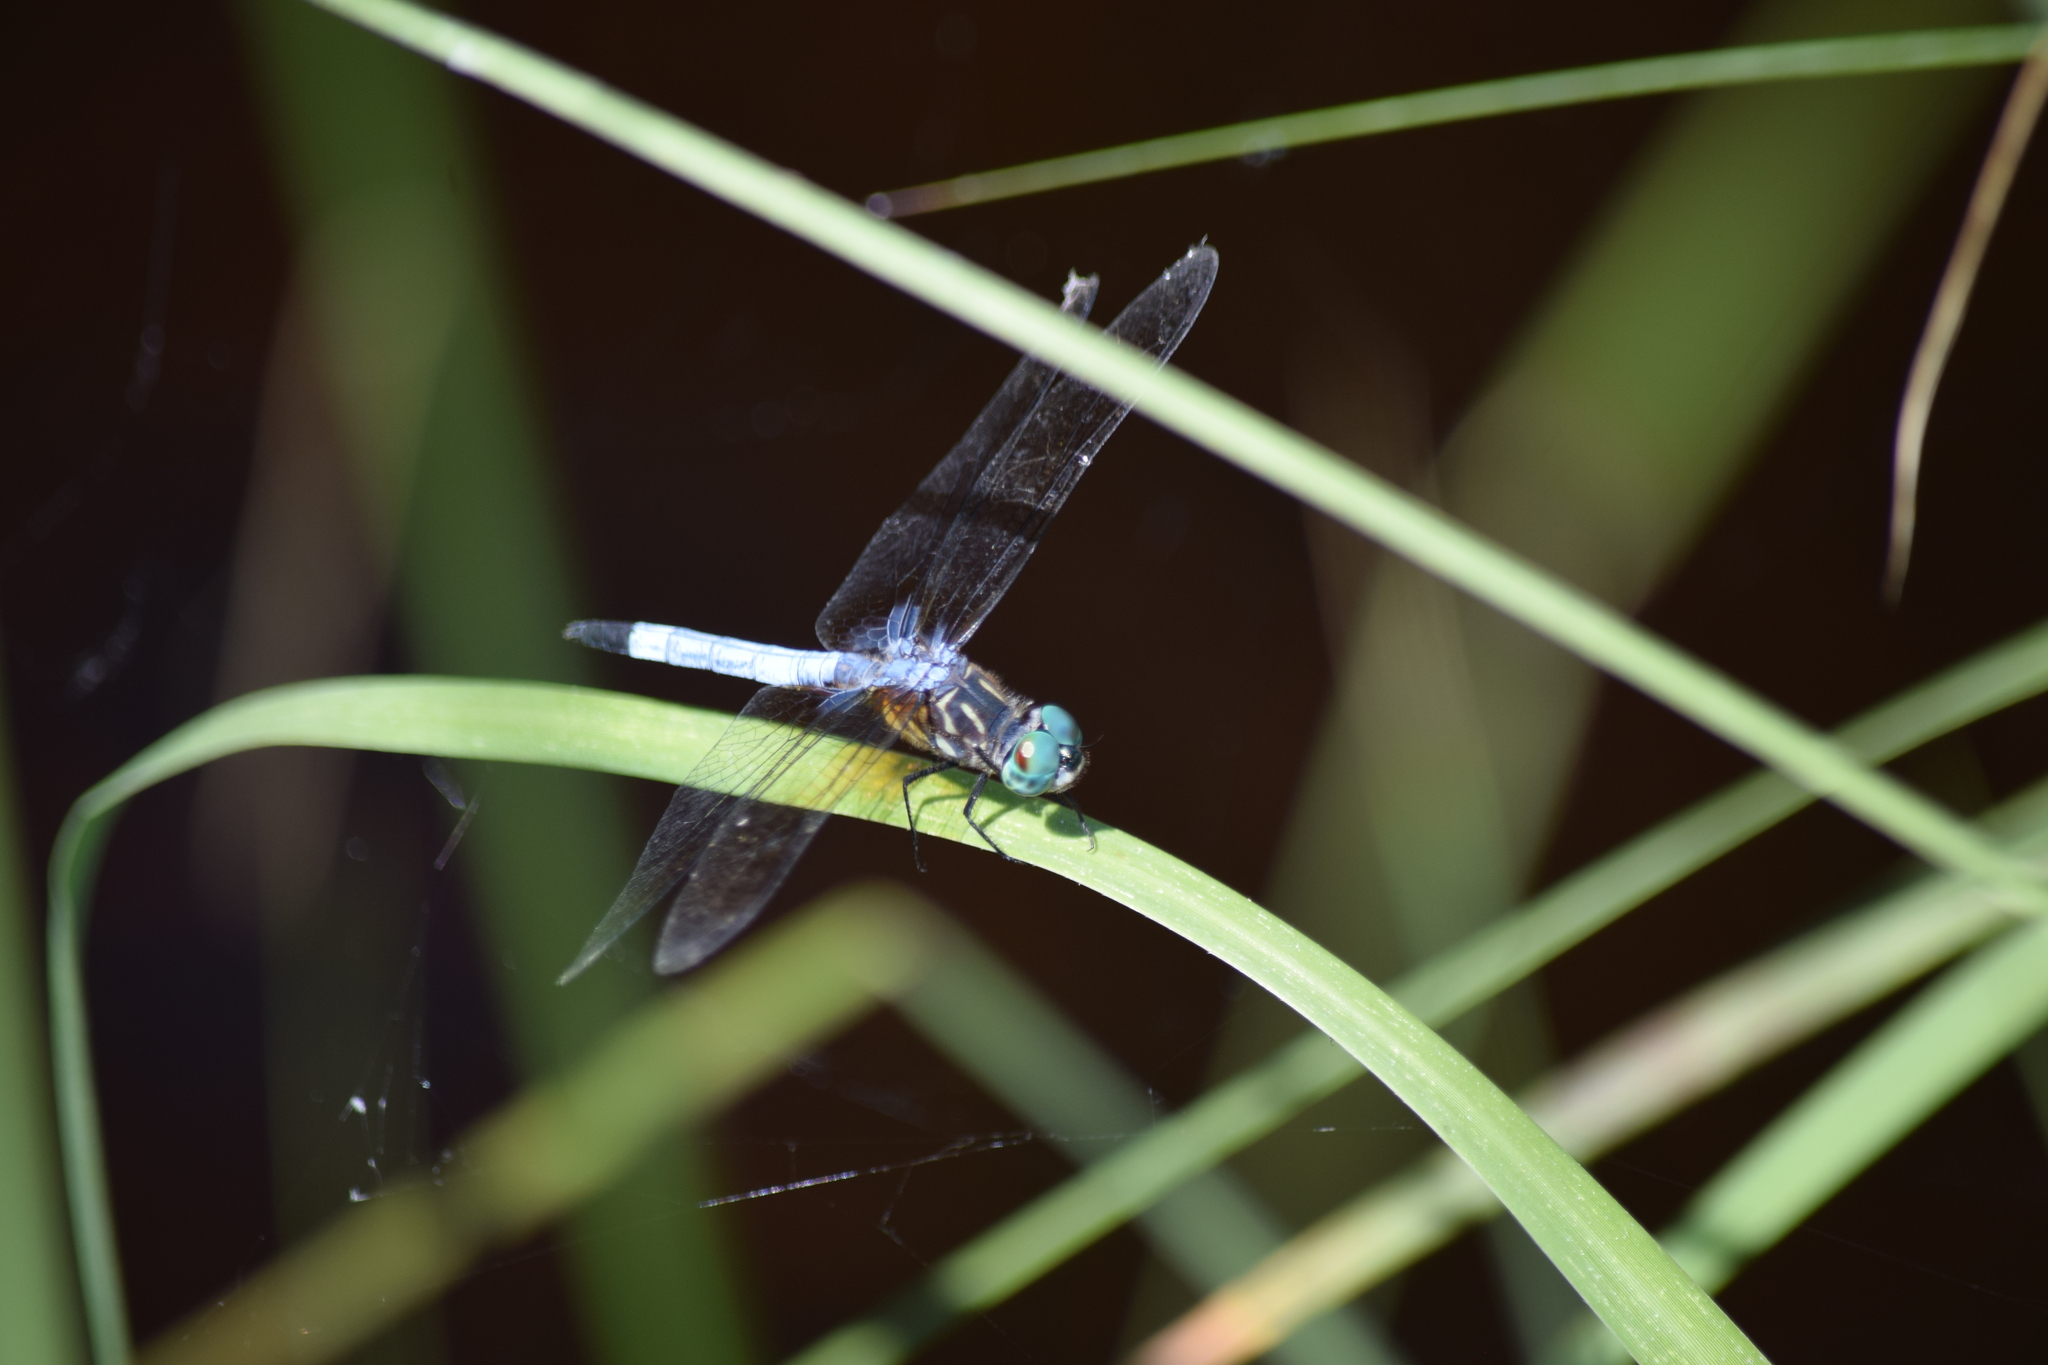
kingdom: Animalia
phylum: Arthropoda
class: Insecta
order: Odonata
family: Libellulidae
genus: Pachydiplax
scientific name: Pachydiplax longipennis
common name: Blue dasher
